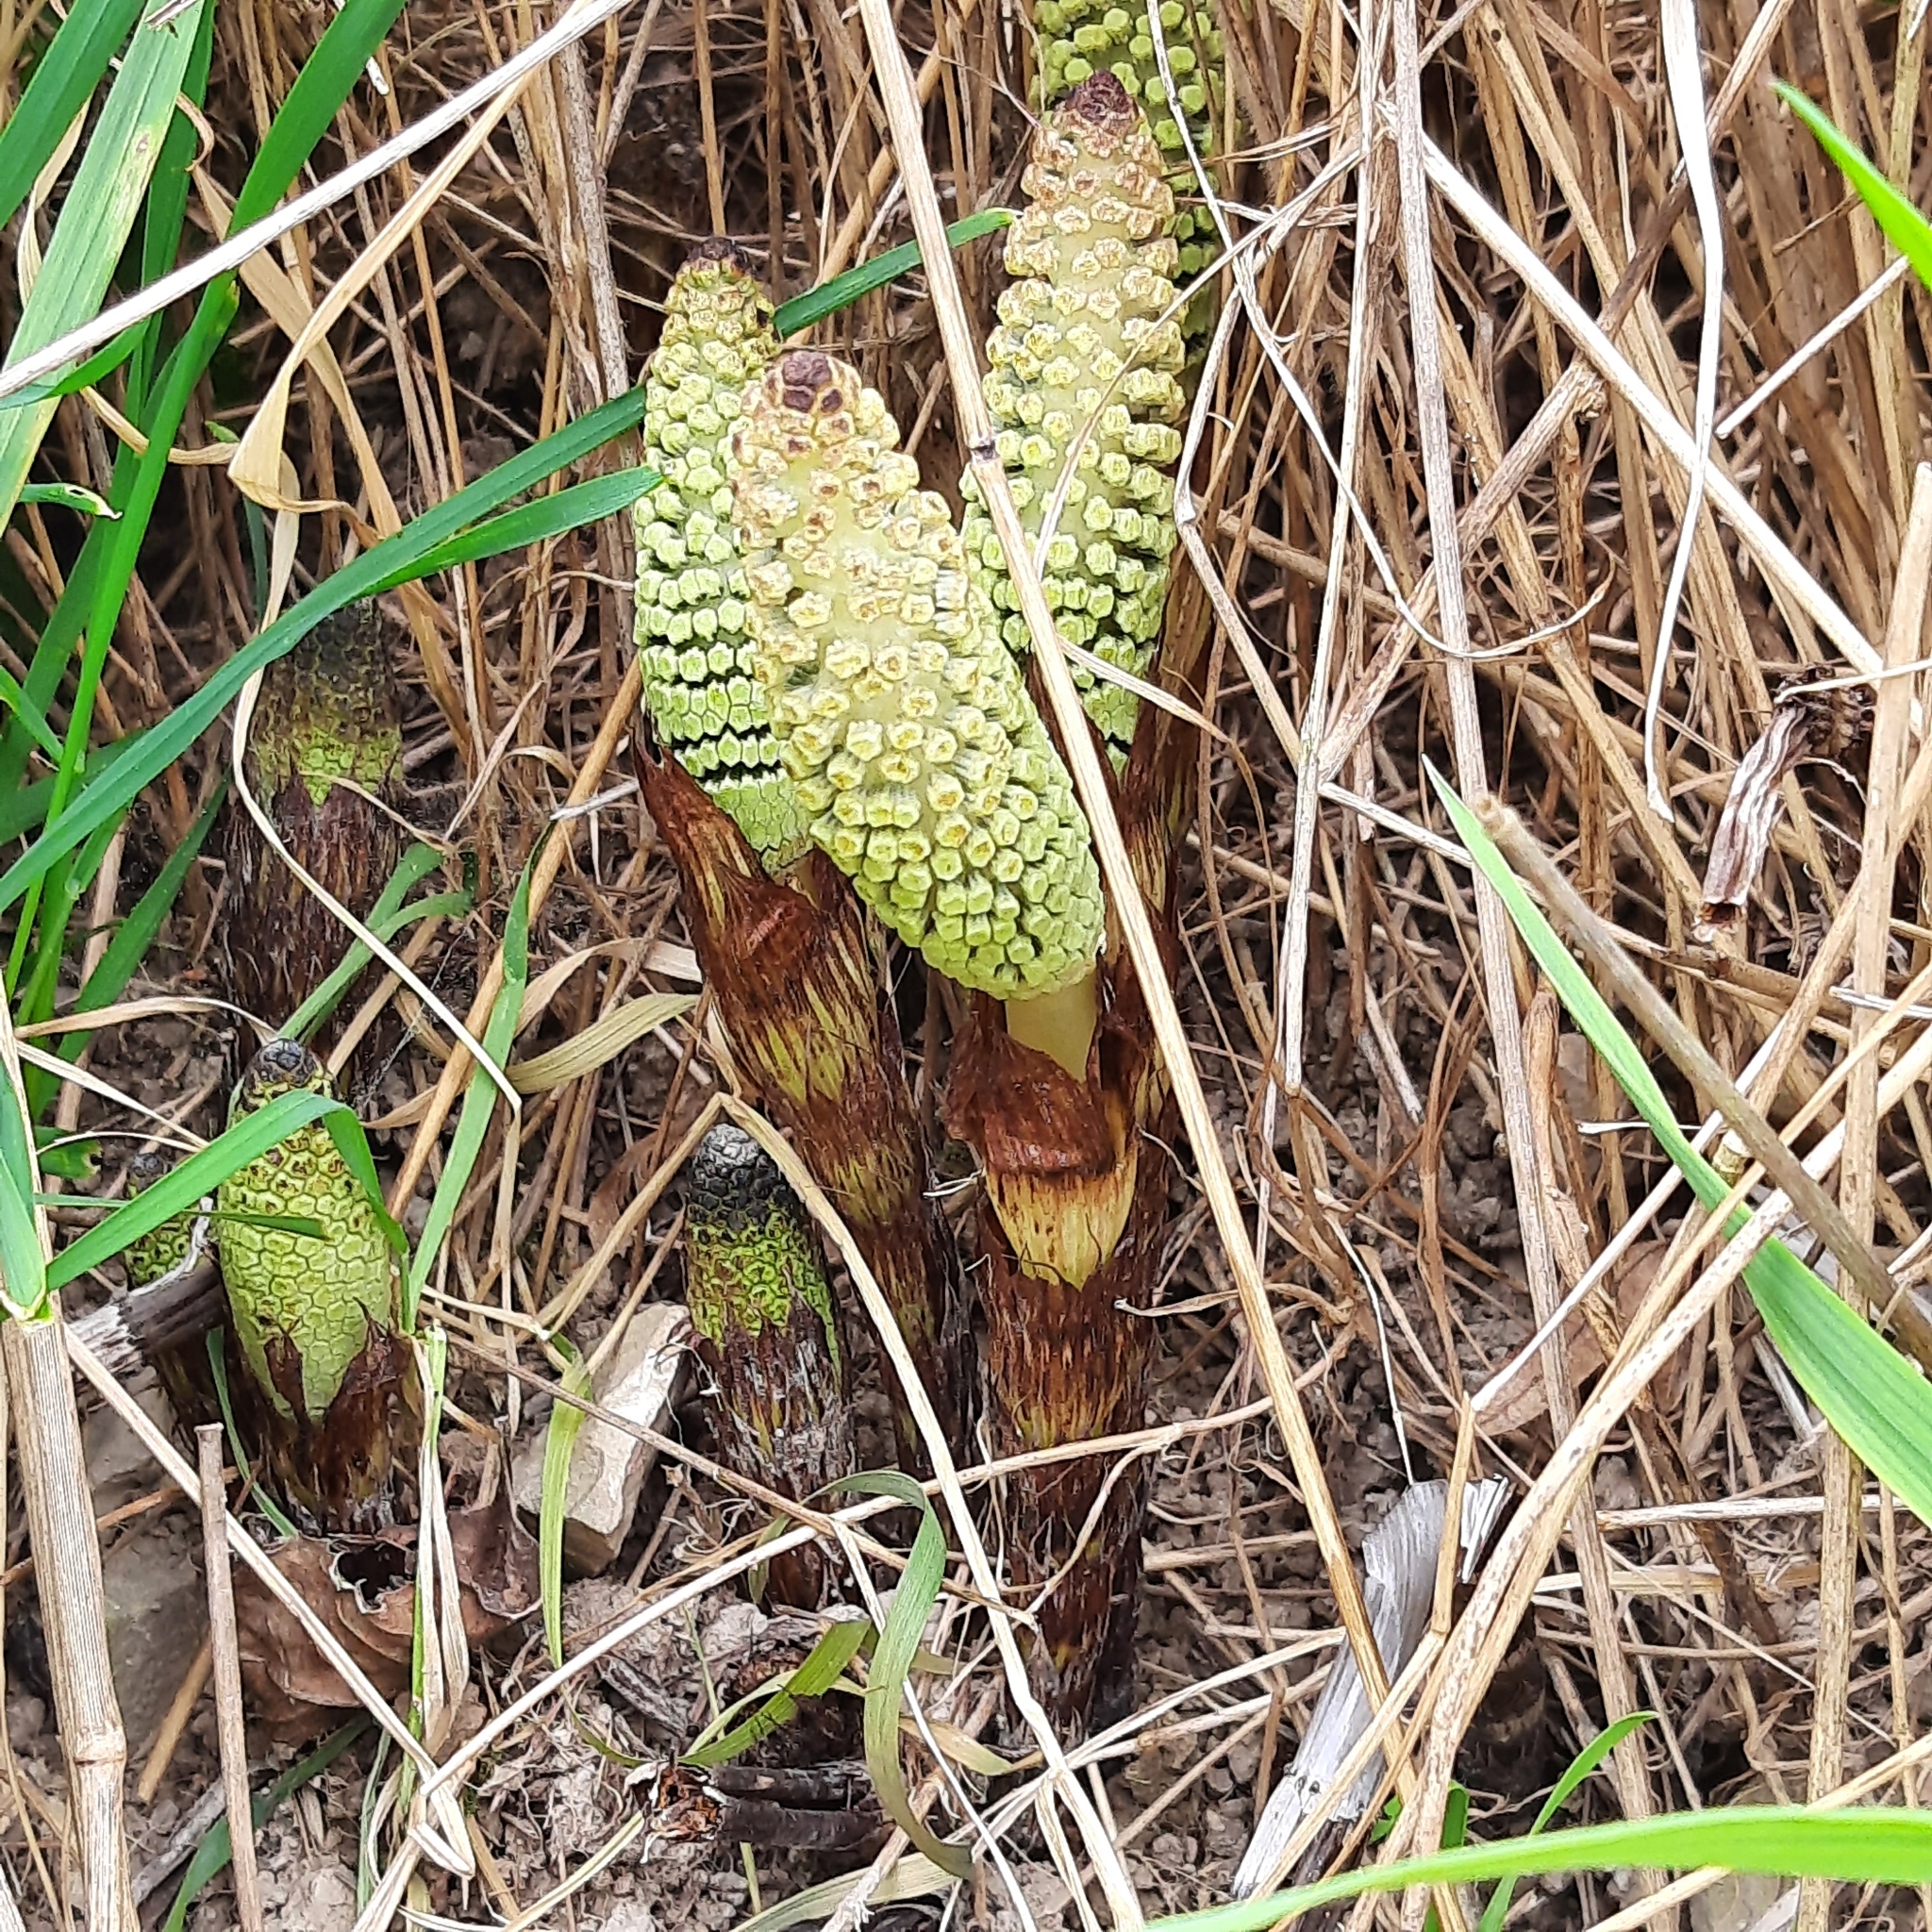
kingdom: Plantae
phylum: Tracheophyta
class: Polypodiopsida
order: Equisetales
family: Equisetaceae
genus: Equisetum
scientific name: Equisetum telmateia
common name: Great horsetail
